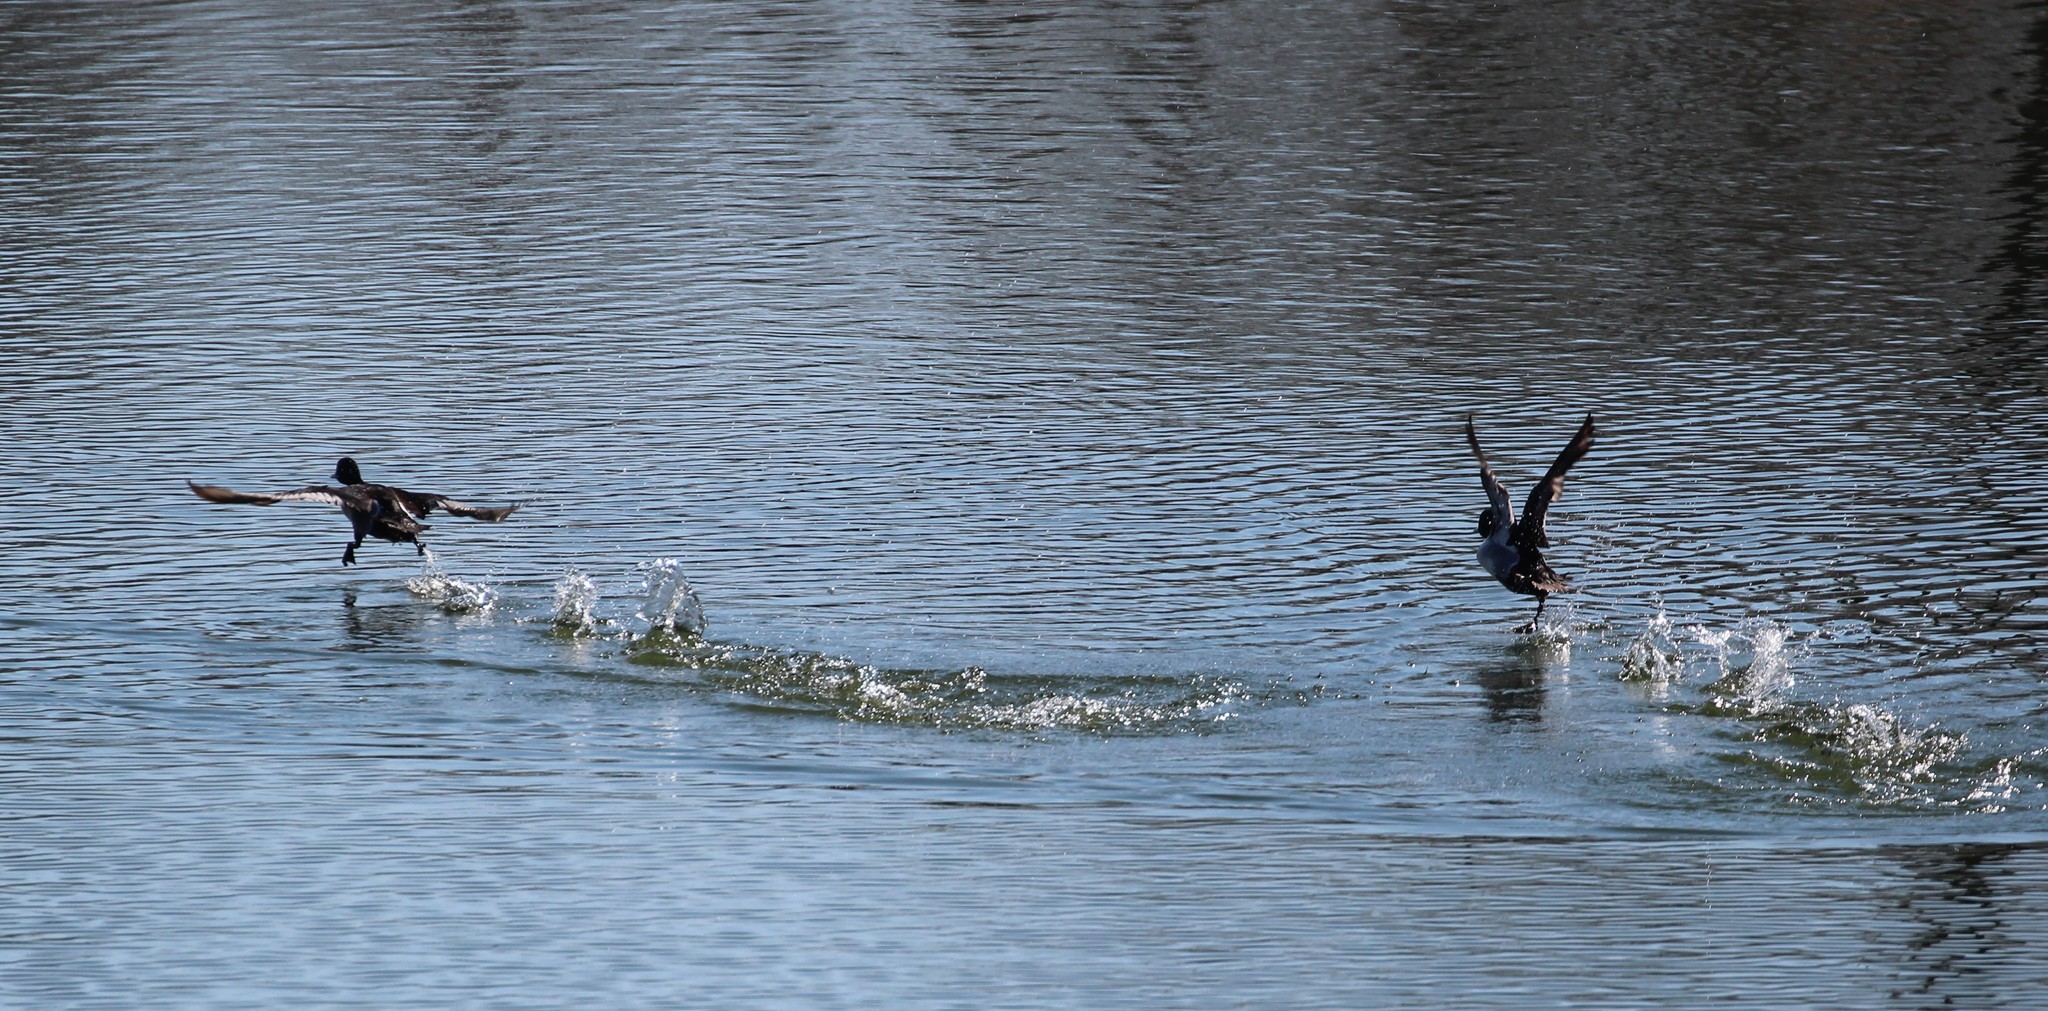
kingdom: Animalia
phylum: Chordata
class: Aves
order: Anseriformes
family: Anatidae
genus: Aythya
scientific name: Aythya collaris
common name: Ring-necked duck
